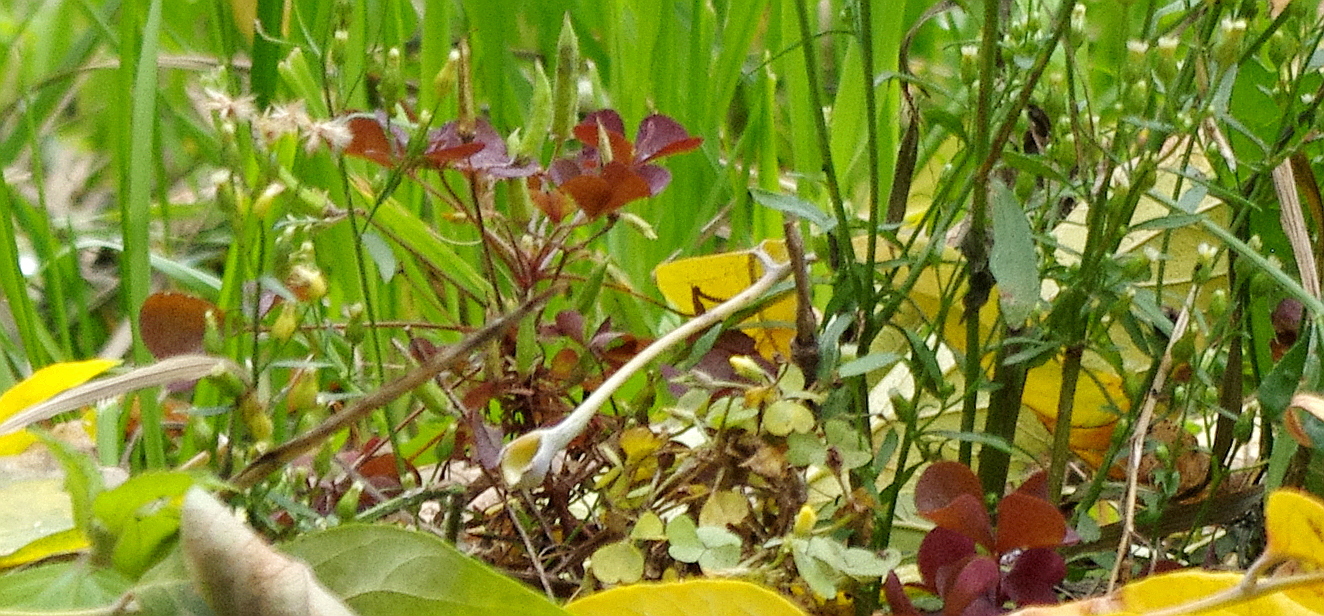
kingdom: Plantae
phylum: Tracheophyta
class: Magnoliopsida
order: Oxalidales
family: Oxalidaceae
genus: Oxalis
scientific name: Oxalis stricta
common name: Upright yellow-sorrel
